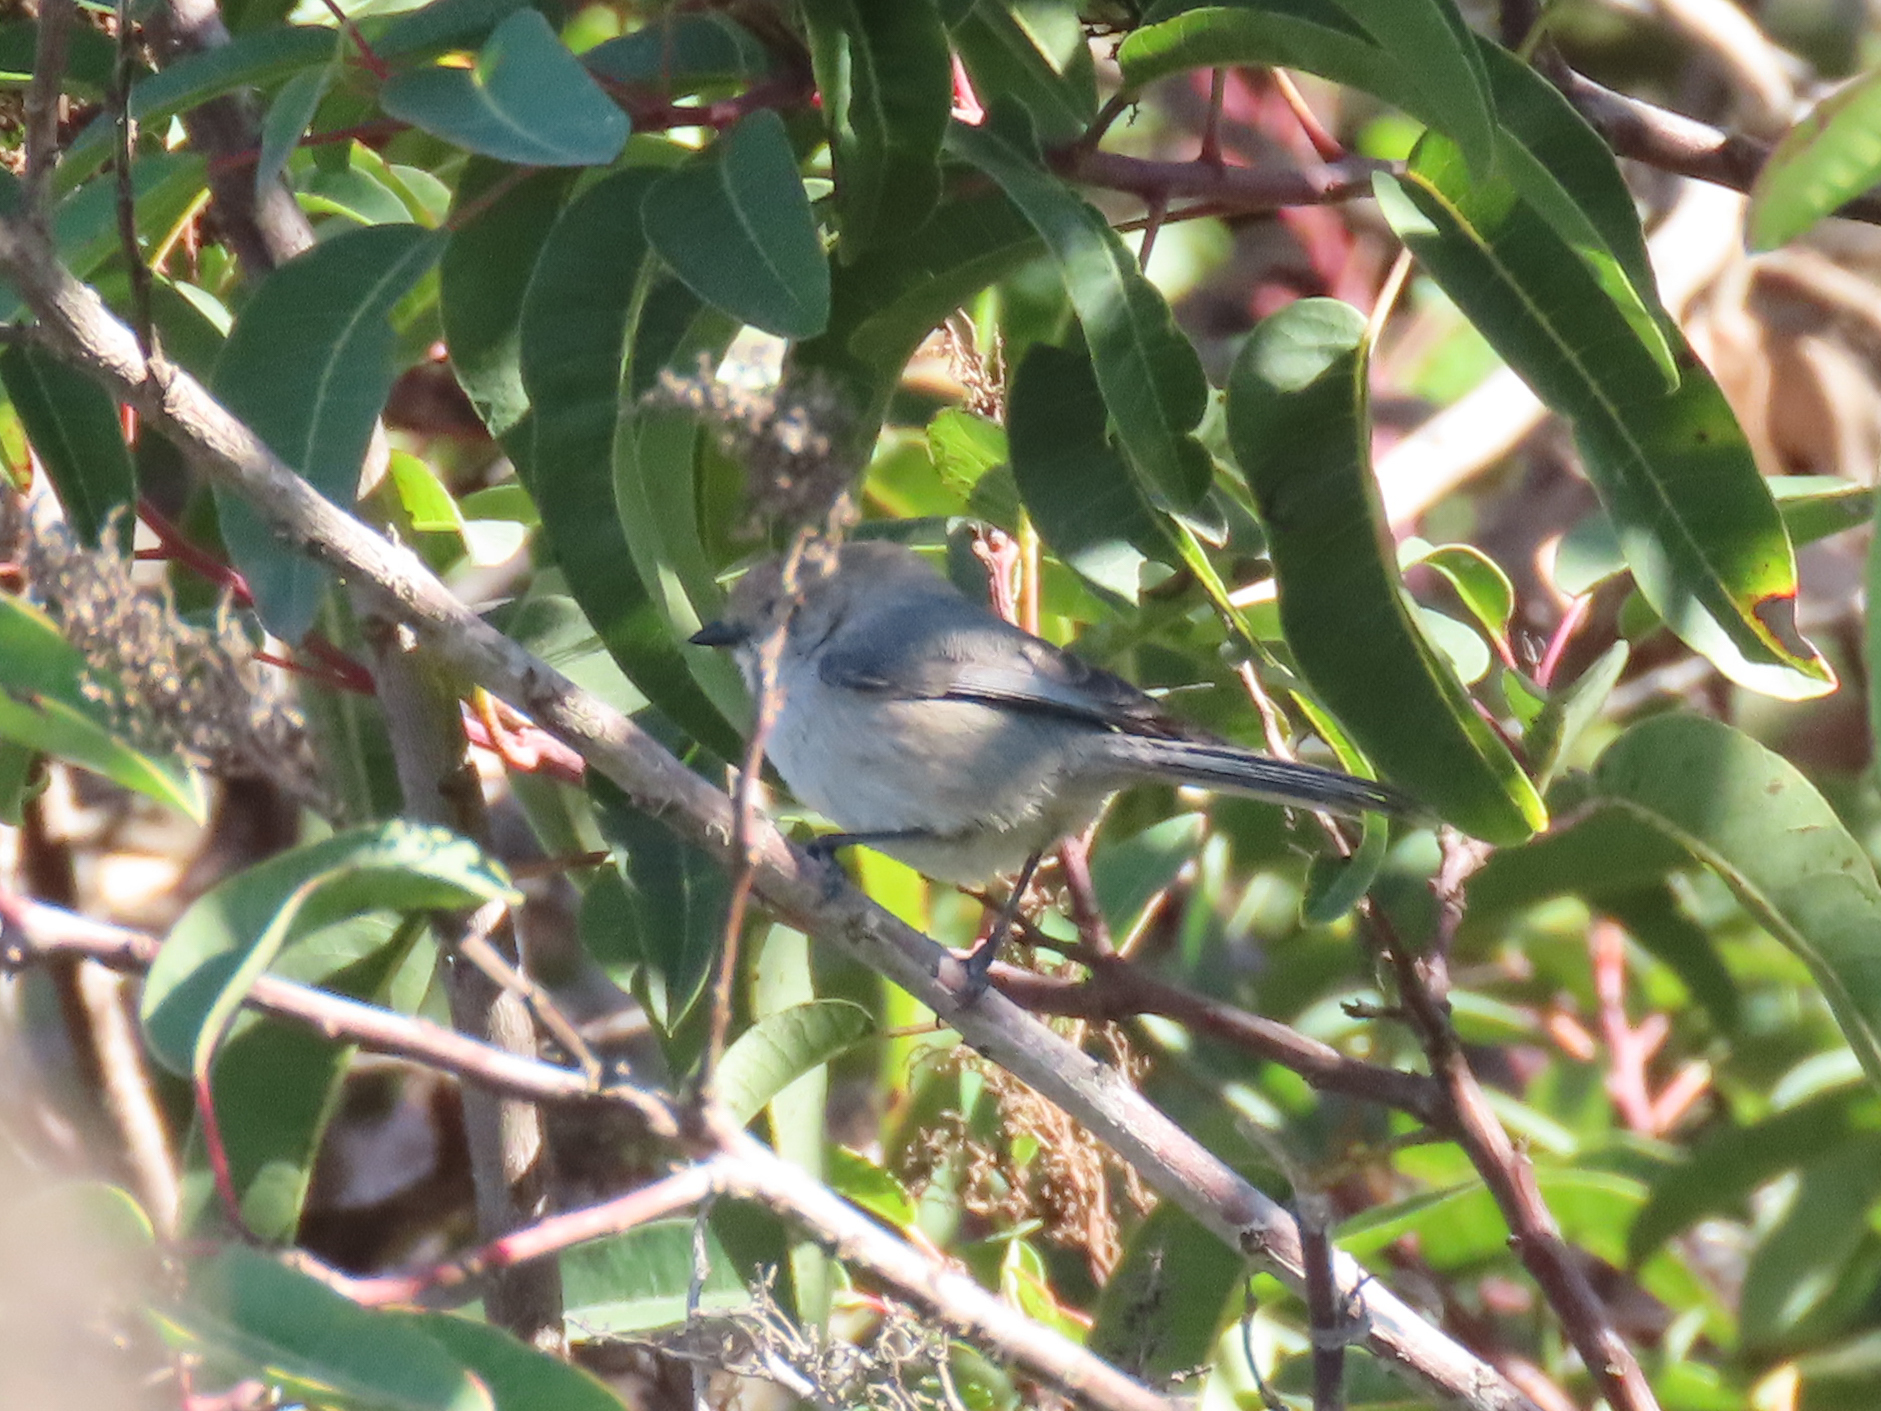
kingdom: Animalia
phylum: Chordata
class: Aves
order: Passeriformes
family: Aegithalidae
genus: Psaltriparus
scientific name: Psaltriparus minimus
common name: American bushtit
